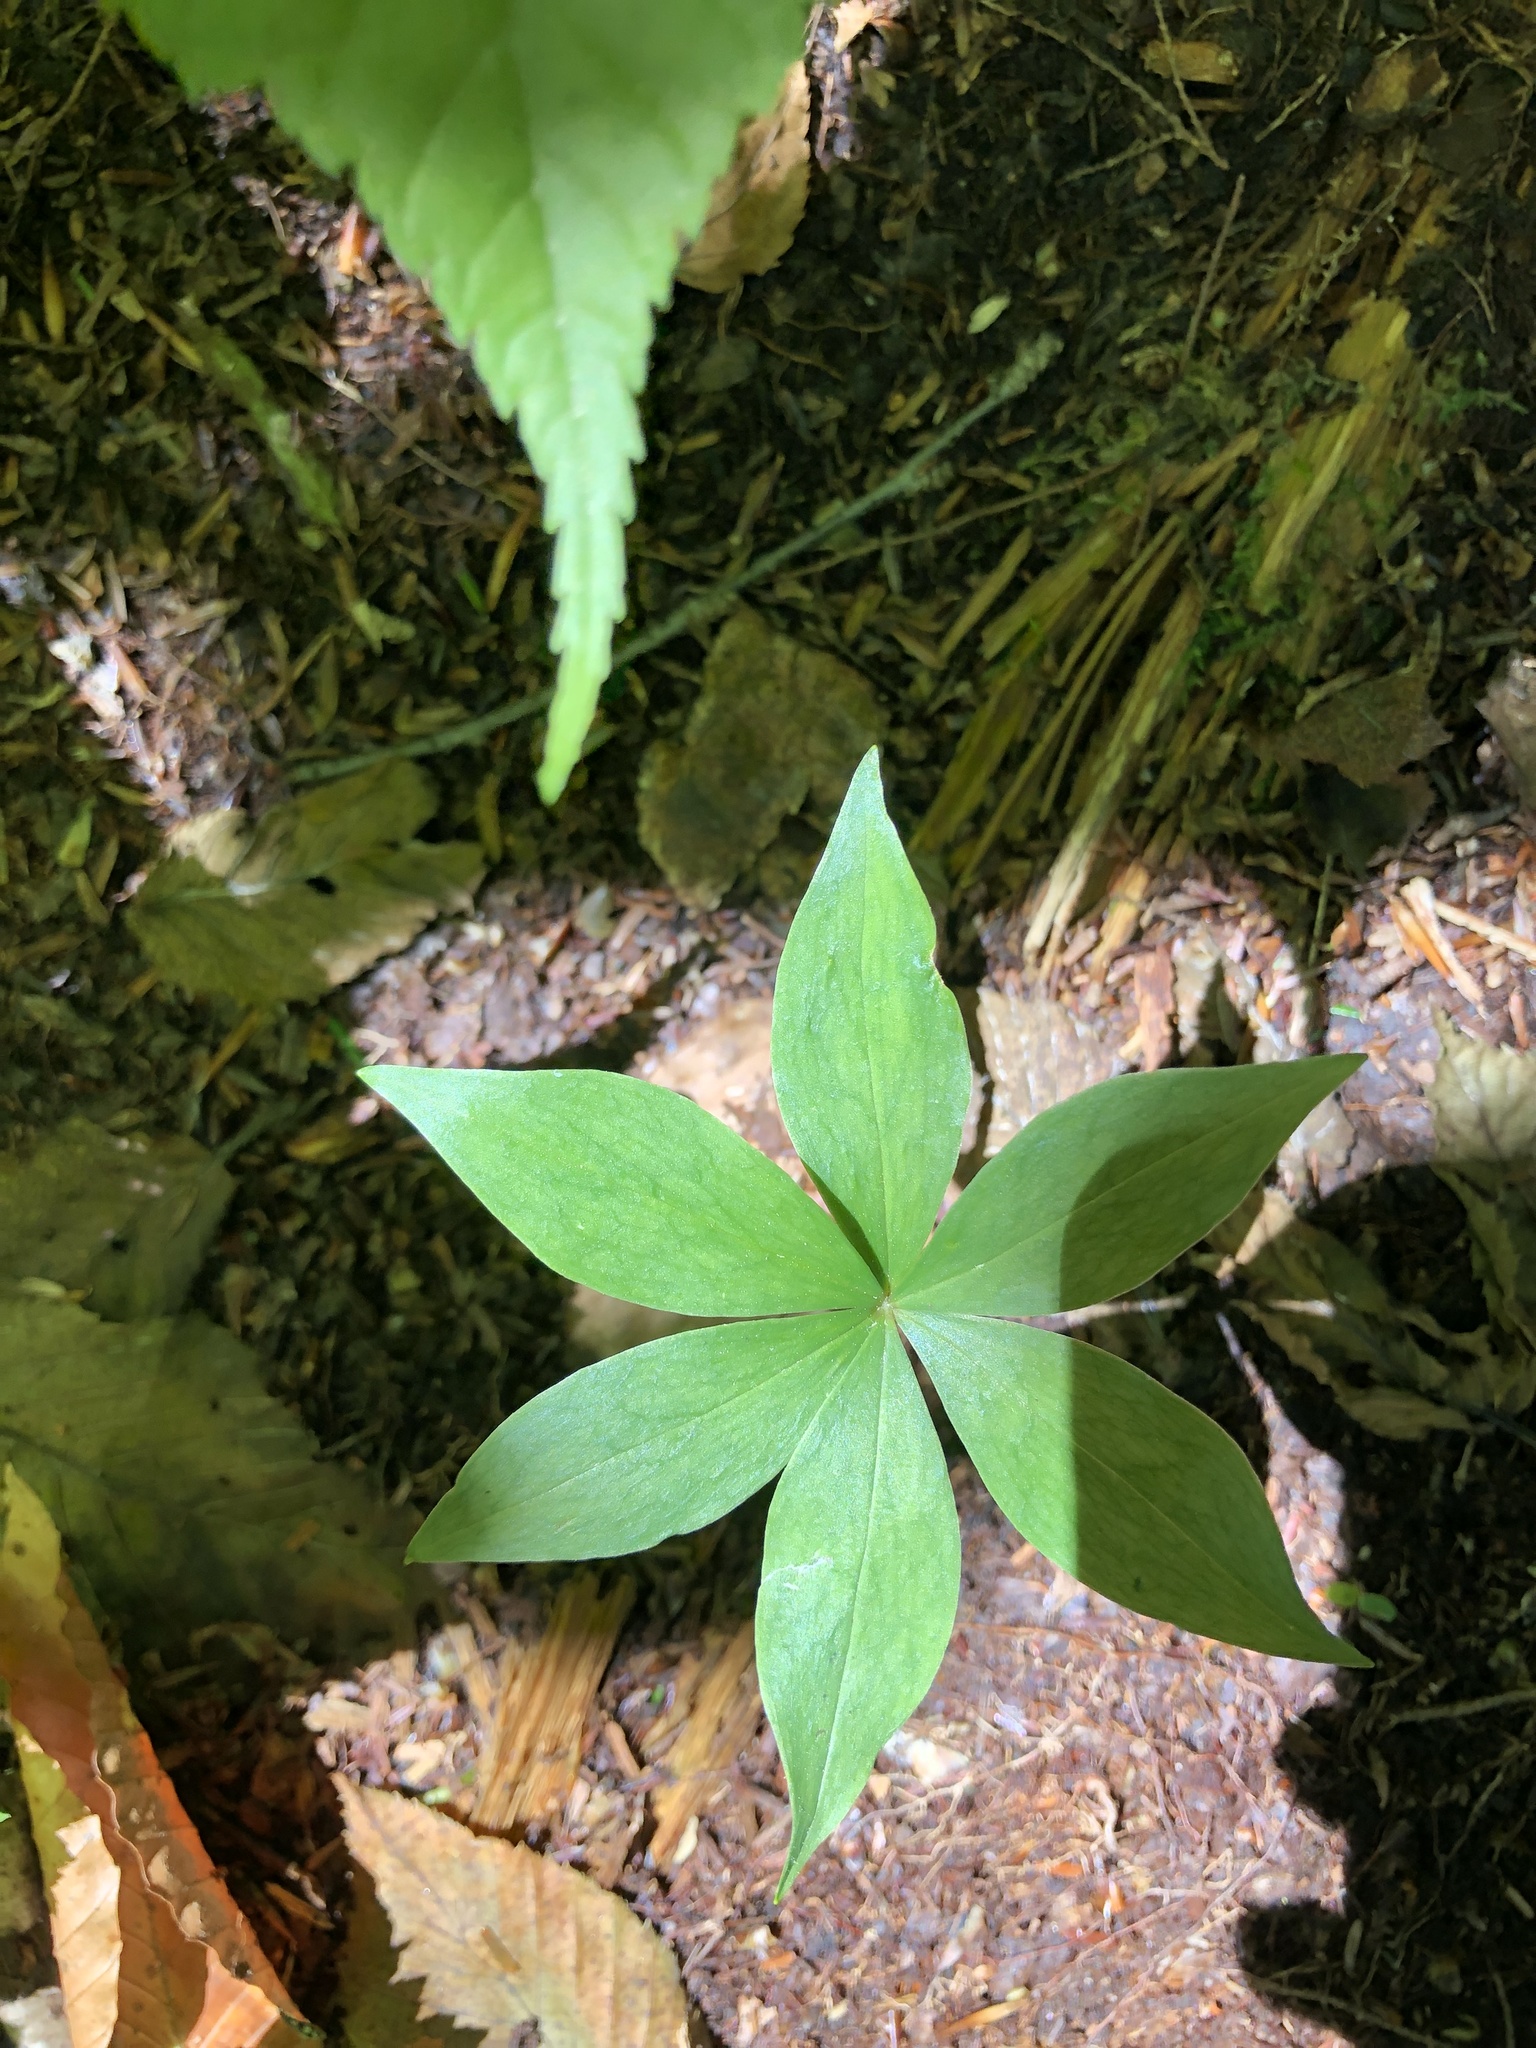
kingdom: Plantae
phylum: Tracheophyta
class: Liliopsida
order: Liliales
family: Liliaceae
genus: Medeola
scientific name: Medeola virginiana
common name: Indian cucumber-root
